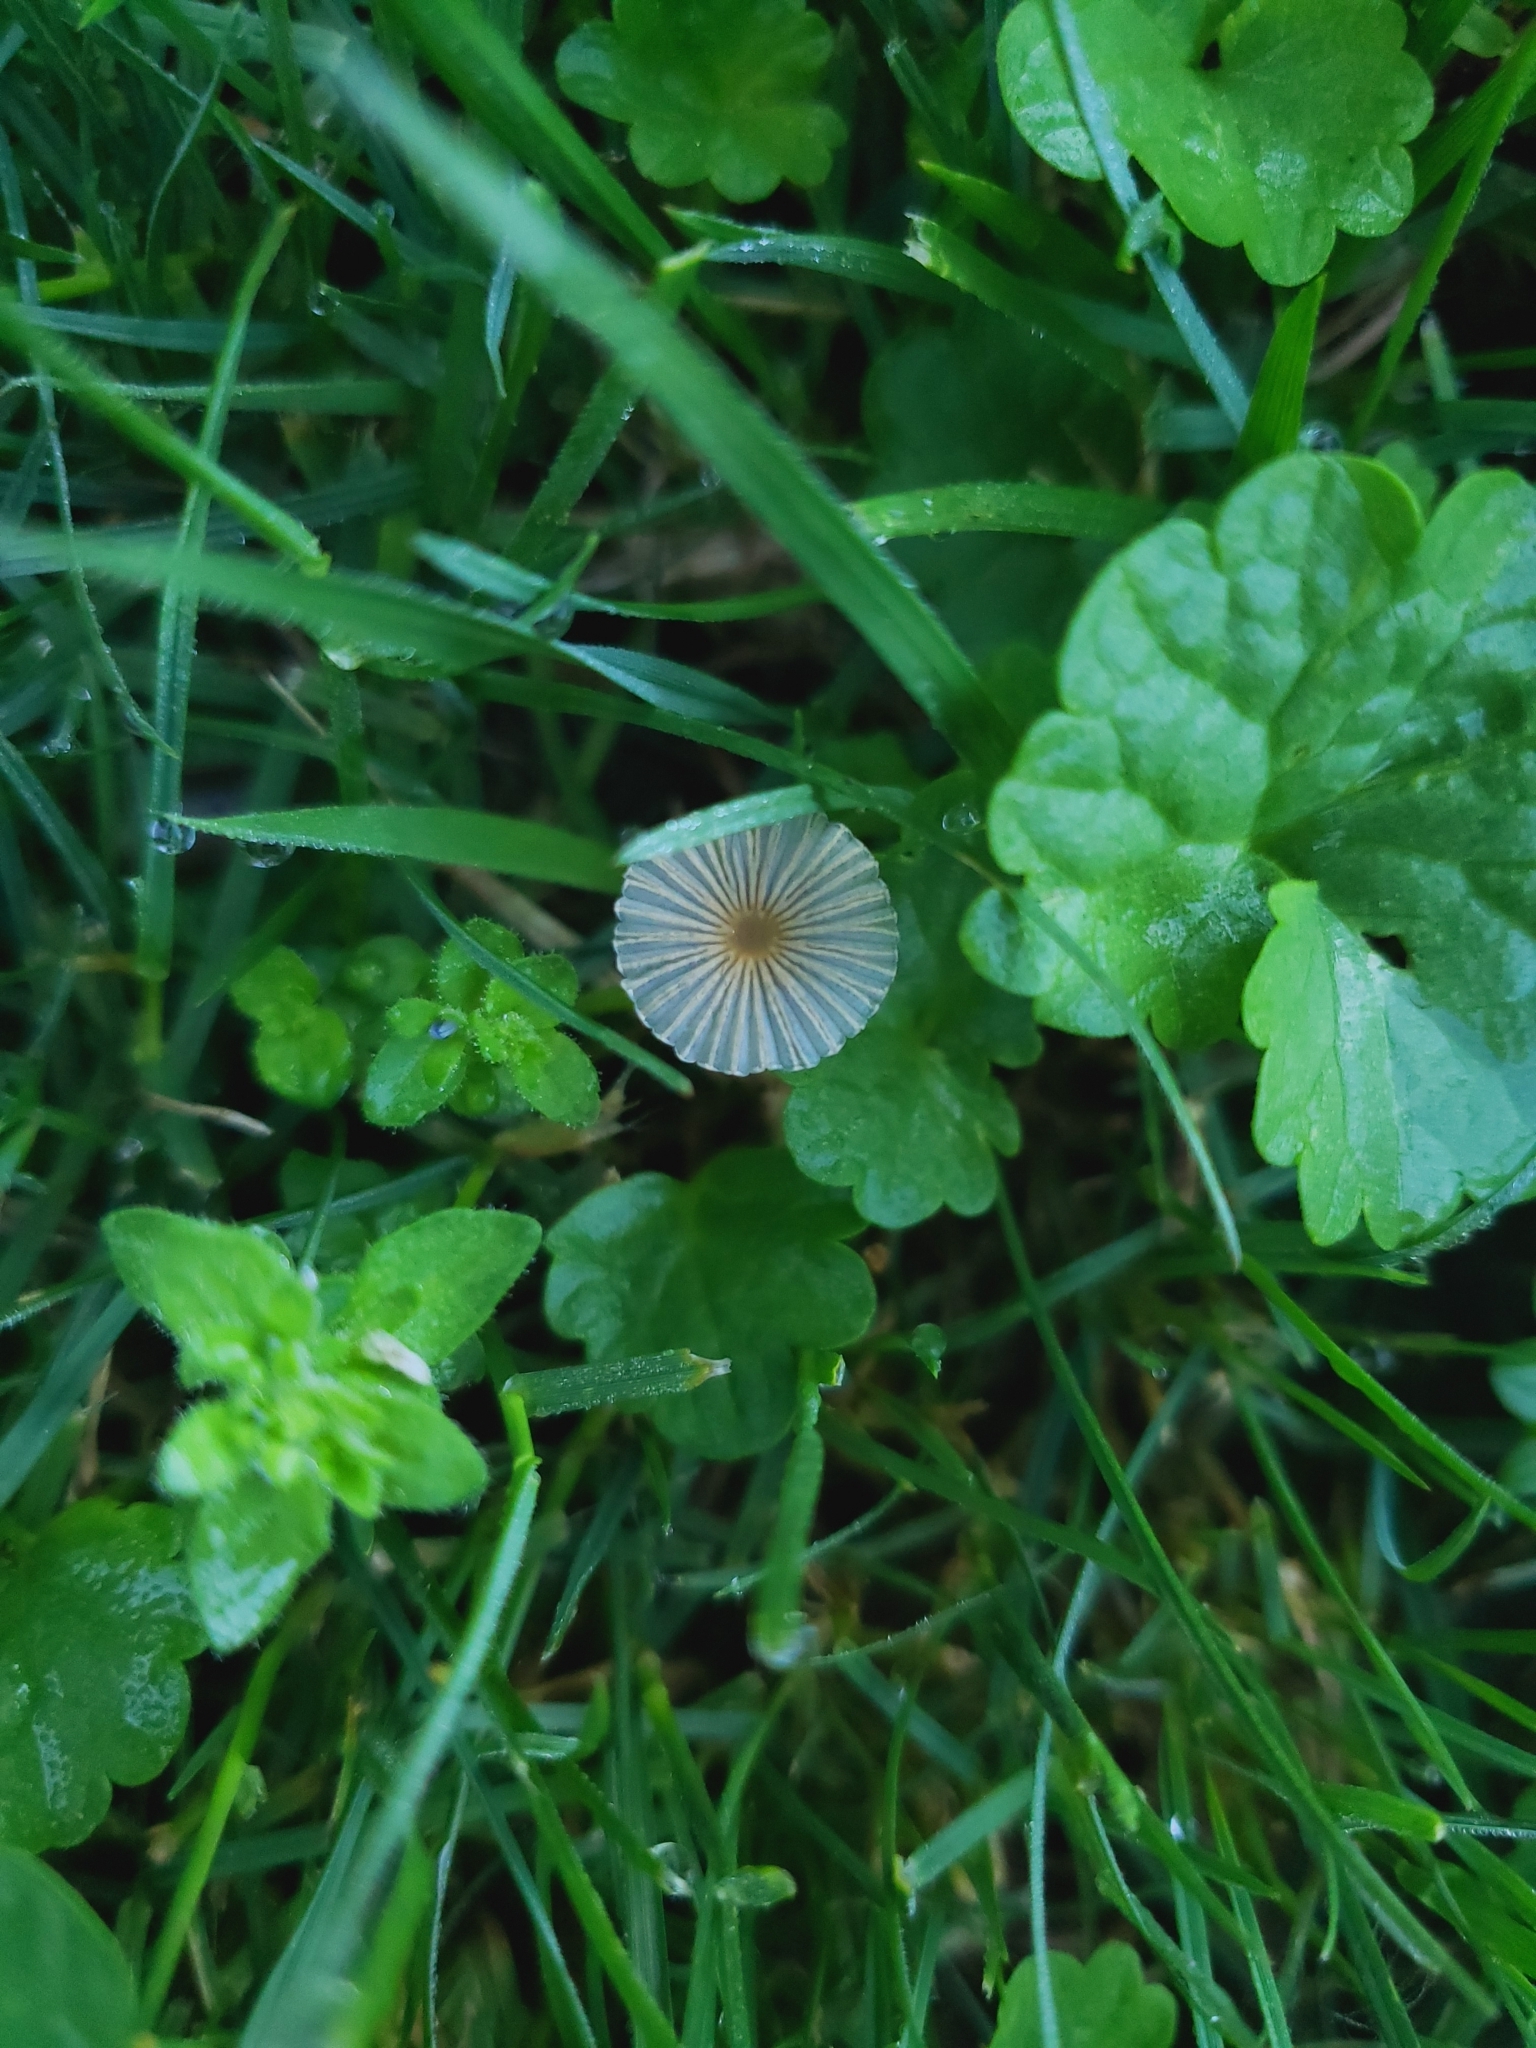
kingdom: Fungi
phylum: Basidiomycota
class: Agaricomycetes
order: Agaricales
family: Psathyrellaceae
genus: Parasola
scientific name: Parasola plicatilis
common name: Pleated inkcap
